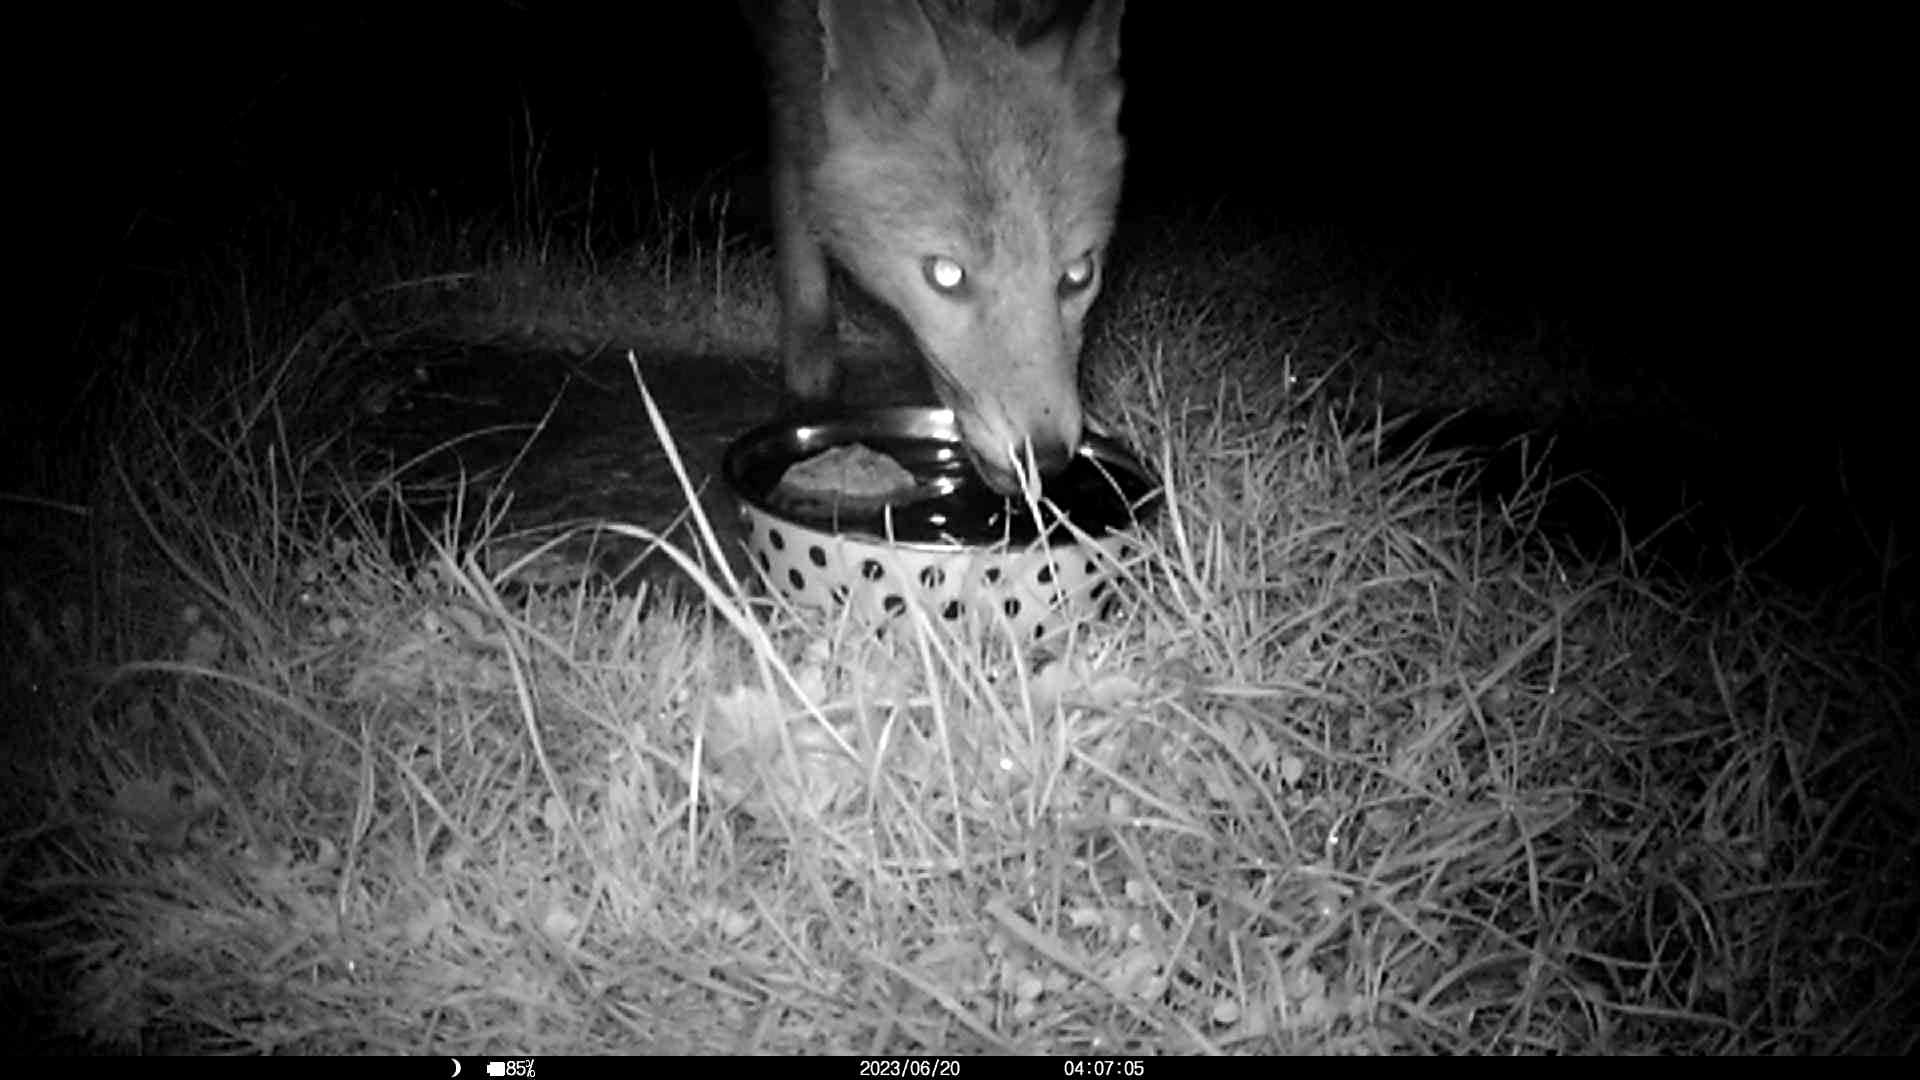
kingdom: Animalia
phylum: Chordata
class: Mammalia
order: Carnivora
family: Canidae
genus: Vulpes
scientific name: Vulpes vulpes
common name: Red fox
